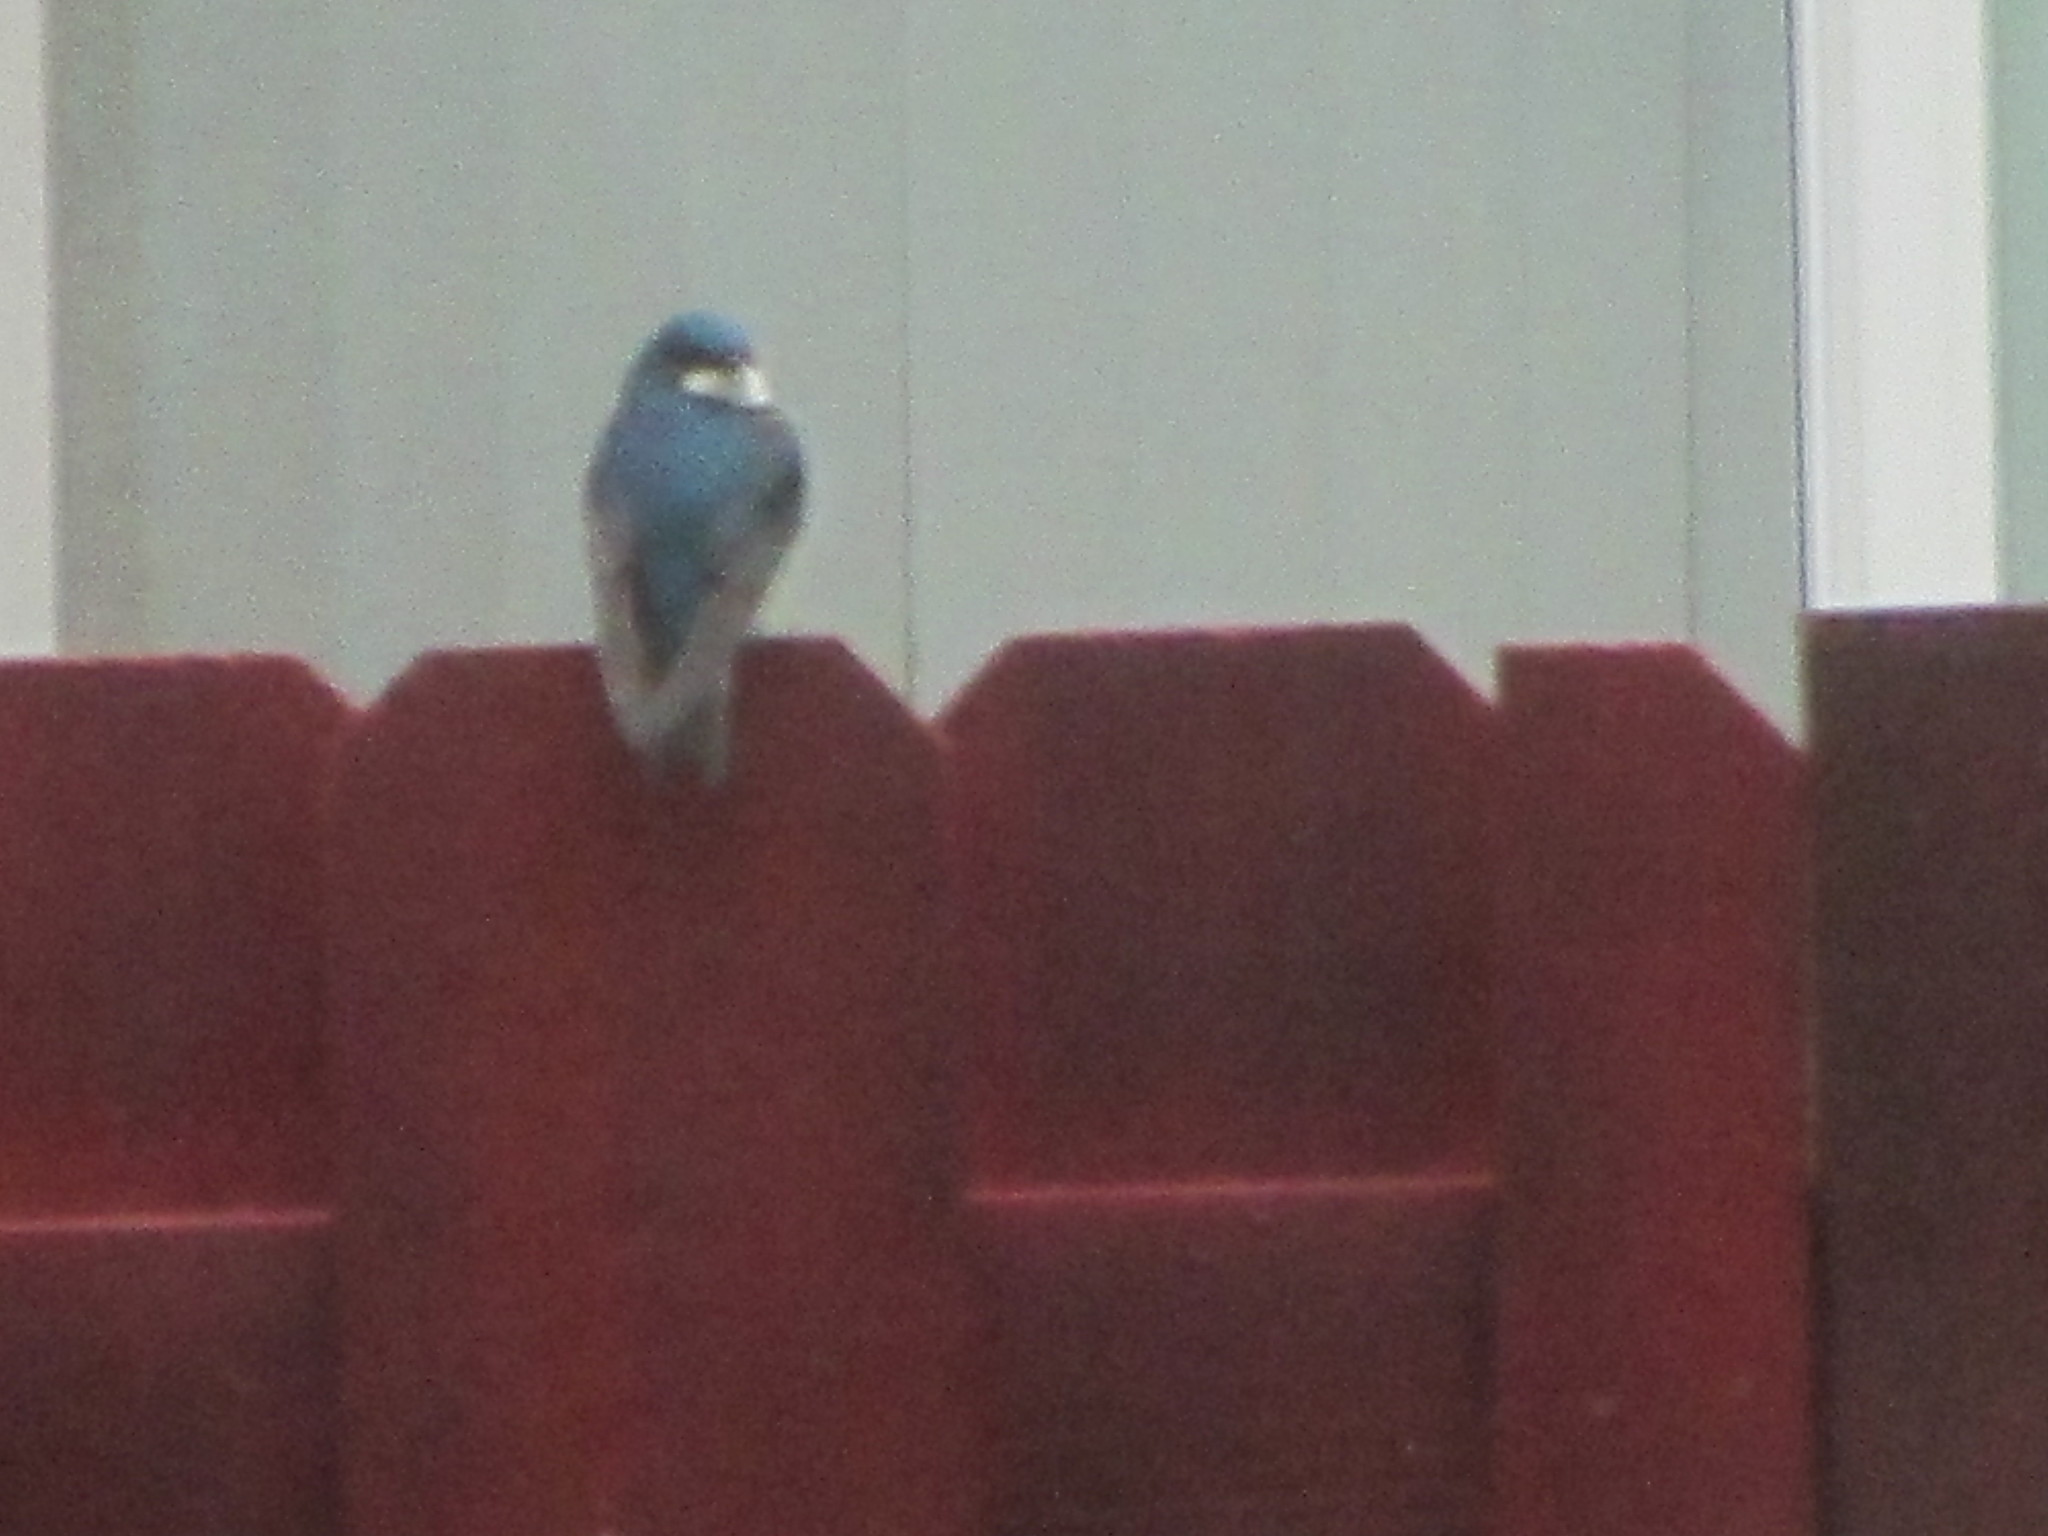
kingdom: Animalia
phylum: Chordata
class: Aves
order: Passeriformes
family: Hirundinidae
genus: Tachycineta
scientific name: Tachycineta bicolor
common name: Tree swallow
